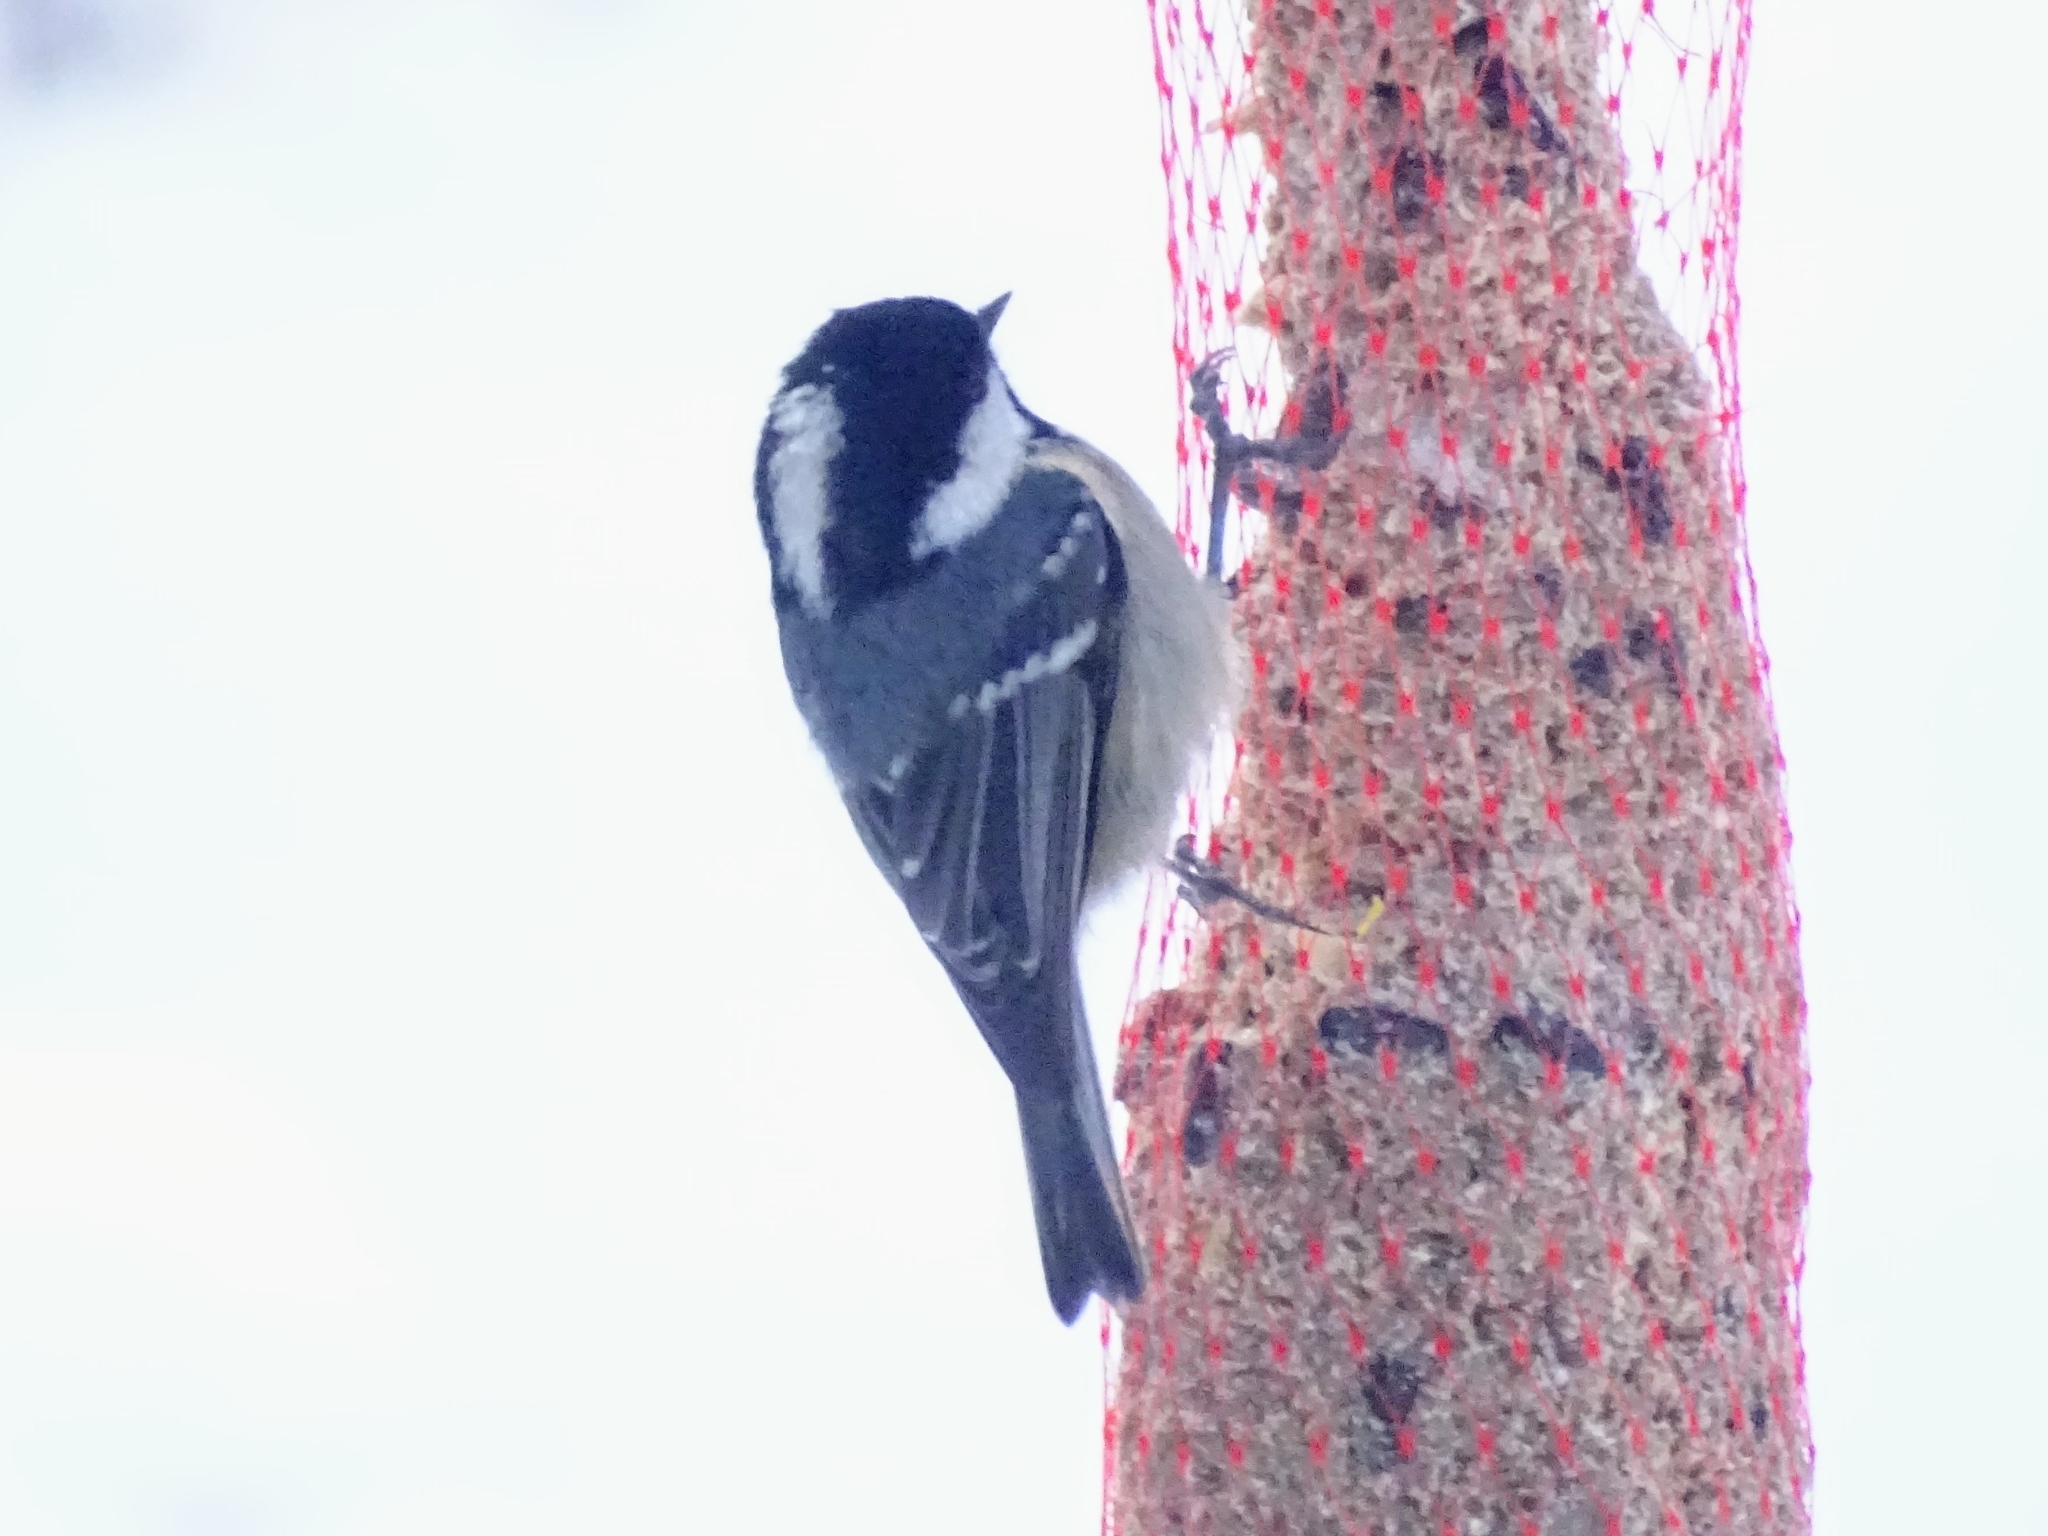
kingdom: Animalia
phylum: Chordata
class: Aves
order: Passeriformes
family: Paridae
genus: Periparus
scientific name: Periparus ater
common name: Coal tit
